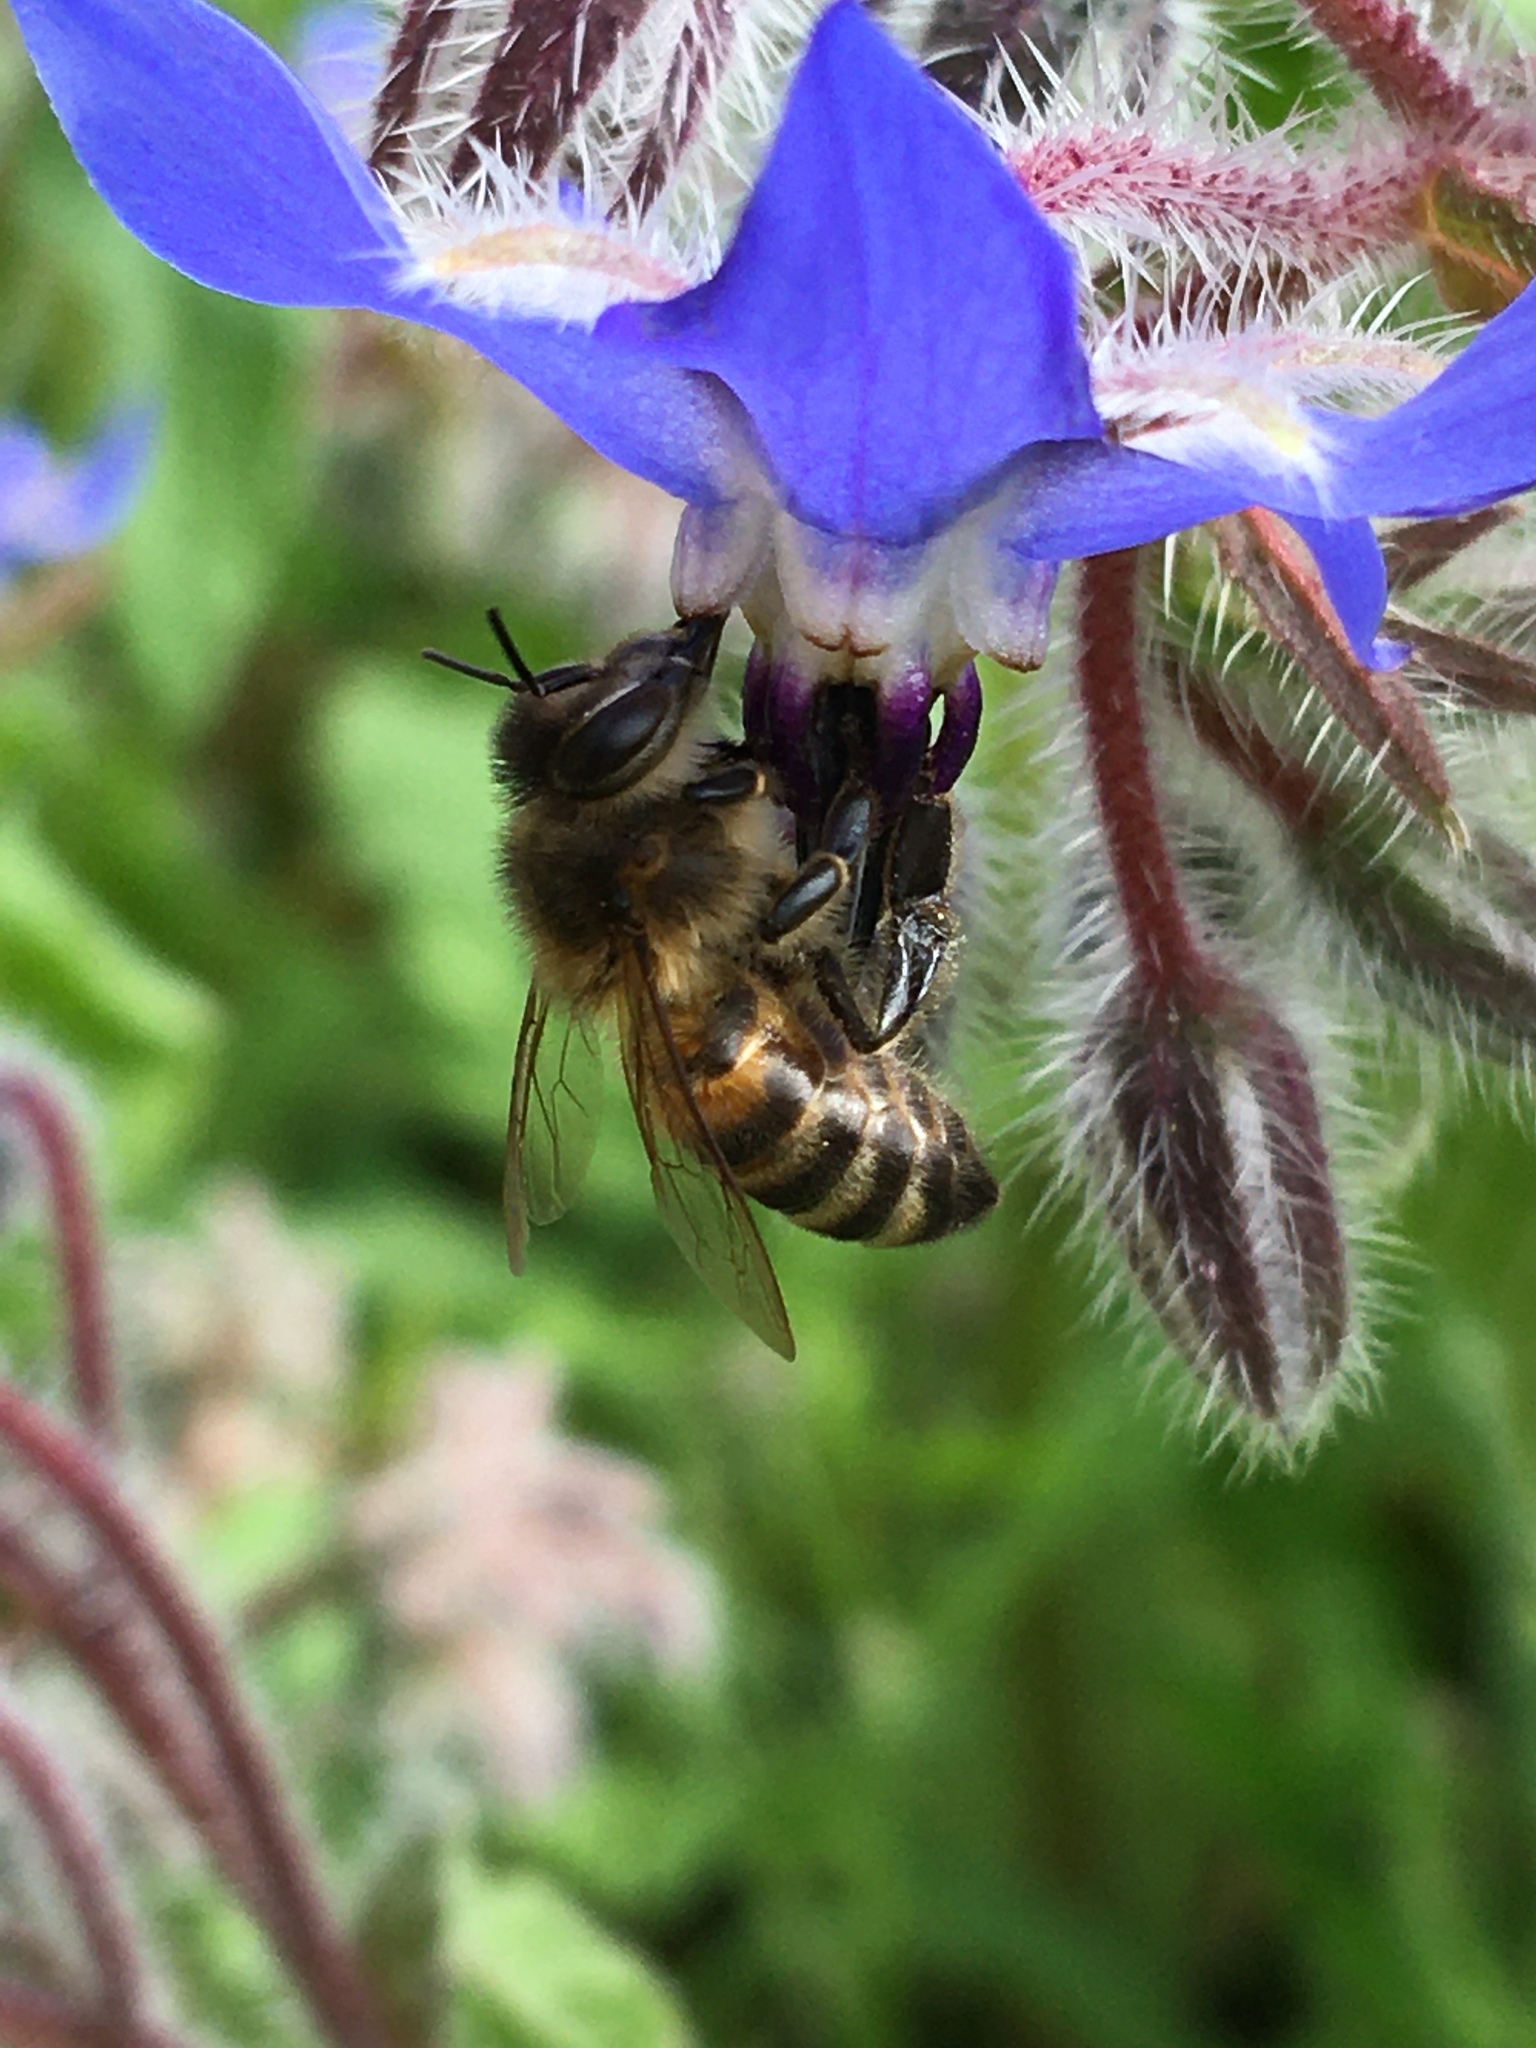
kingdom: Animalia
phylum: Arthropoda
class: Insecta
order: Hymenoptera
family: Apidae
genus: Apis
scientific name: Apis mellifera
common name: Honey bee
